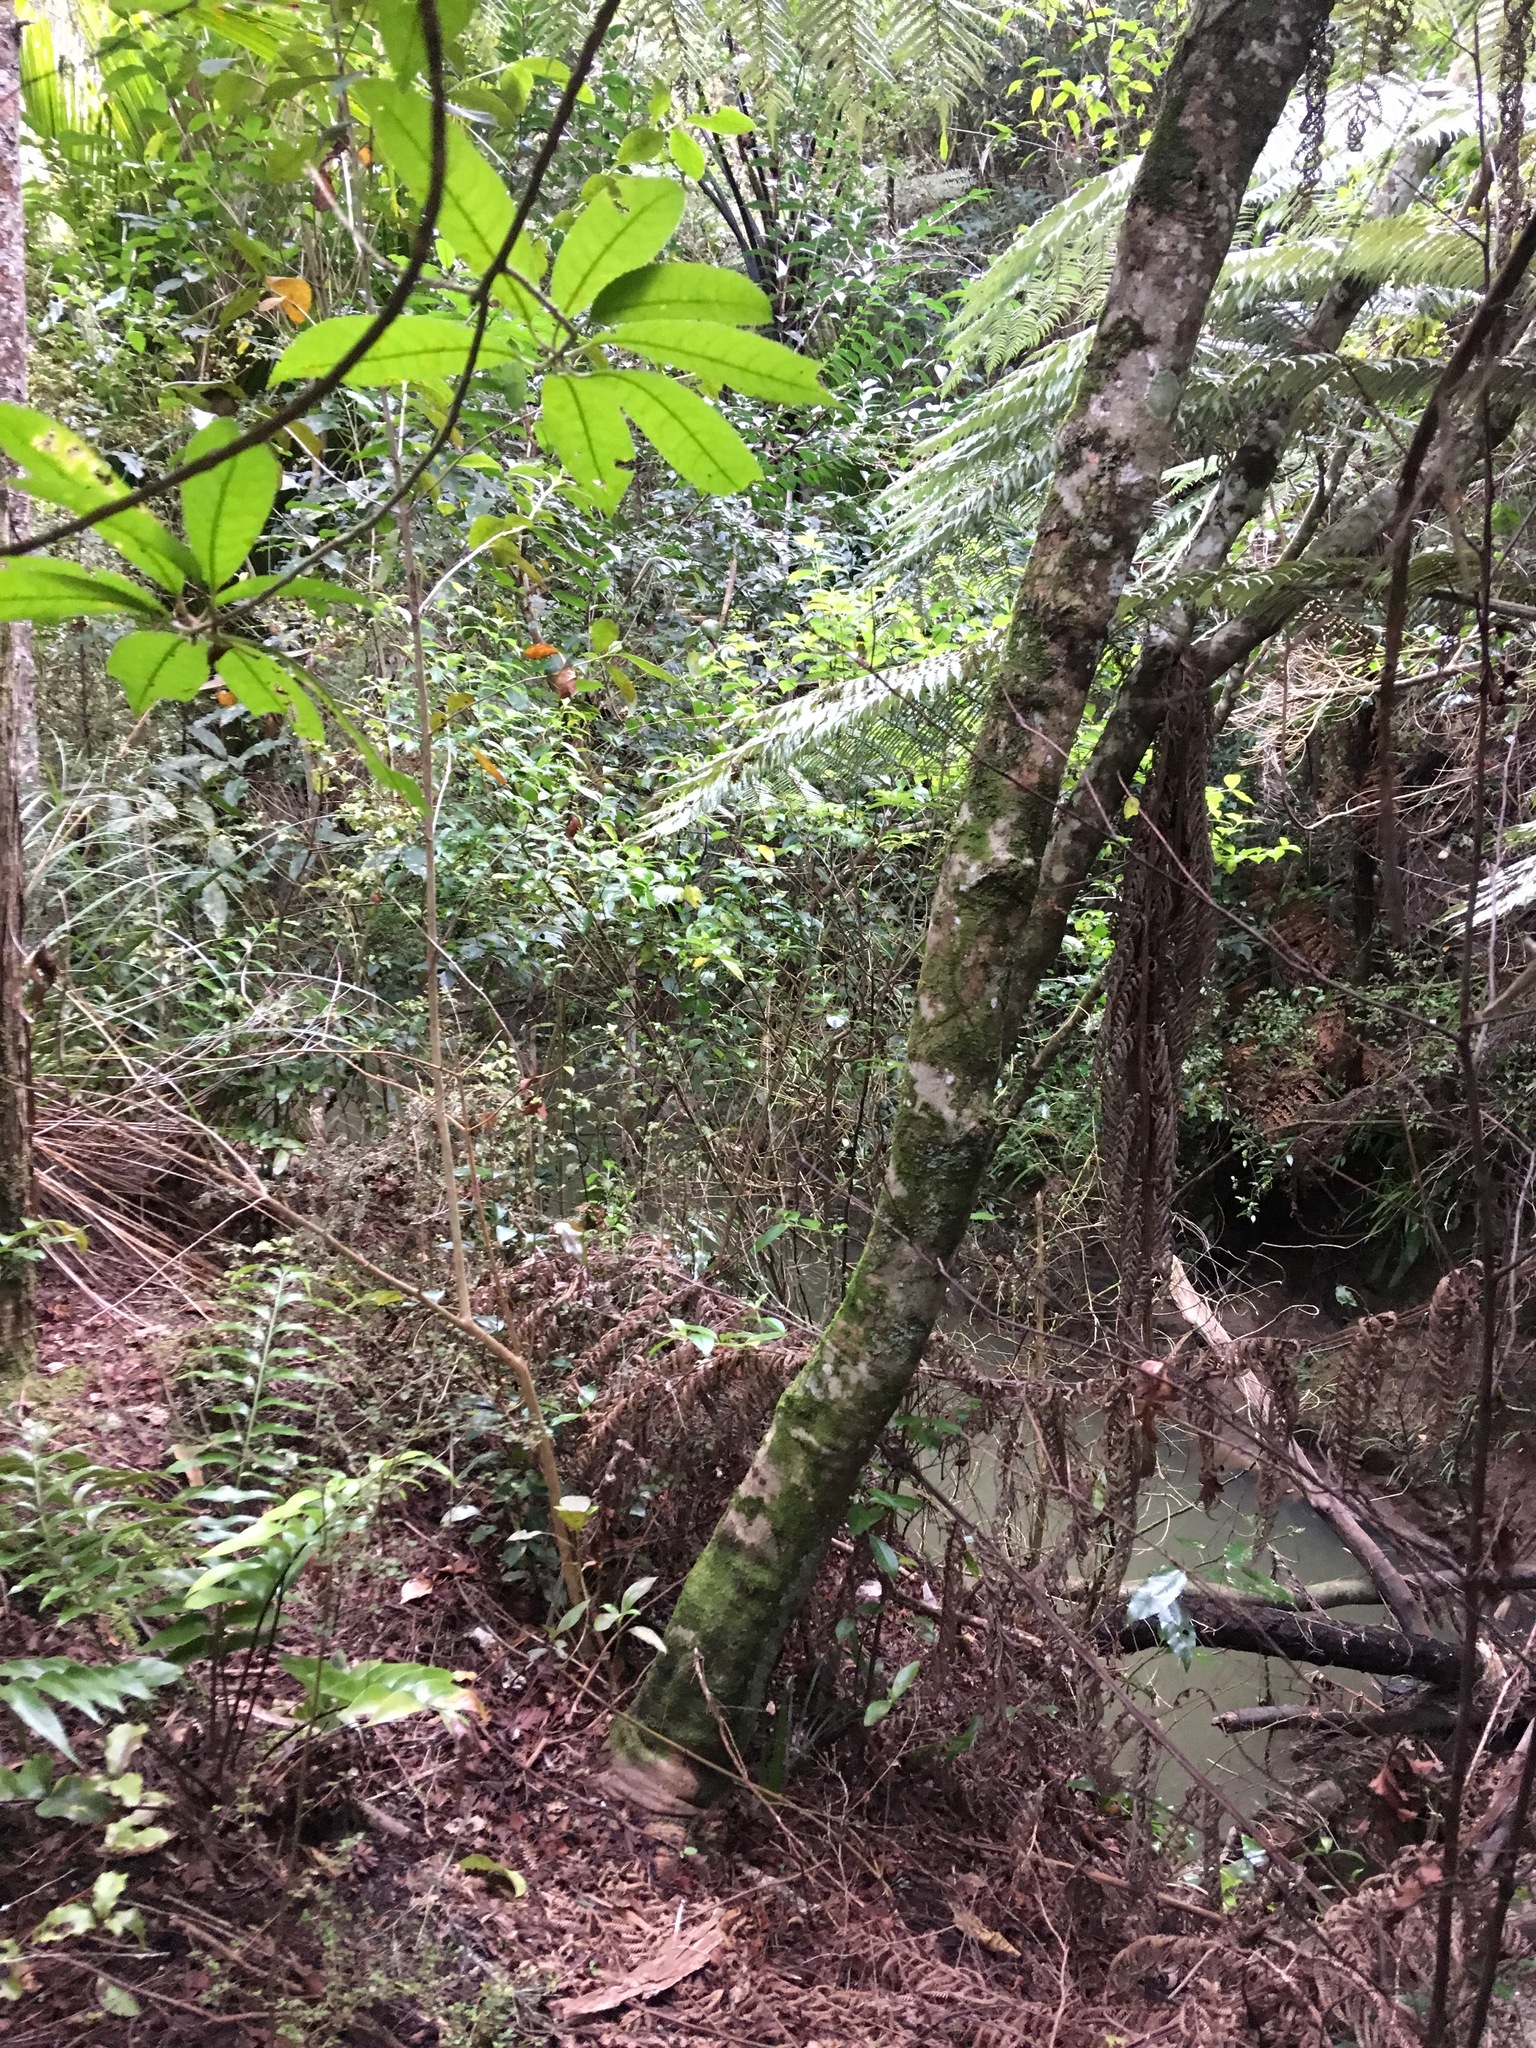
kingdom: Plantae
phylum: Tracheophyta
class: Polypodiopsida
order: Polypodiales
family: Aspleniaceae
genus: Asplenium
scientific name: Asplenium oblongifolium
